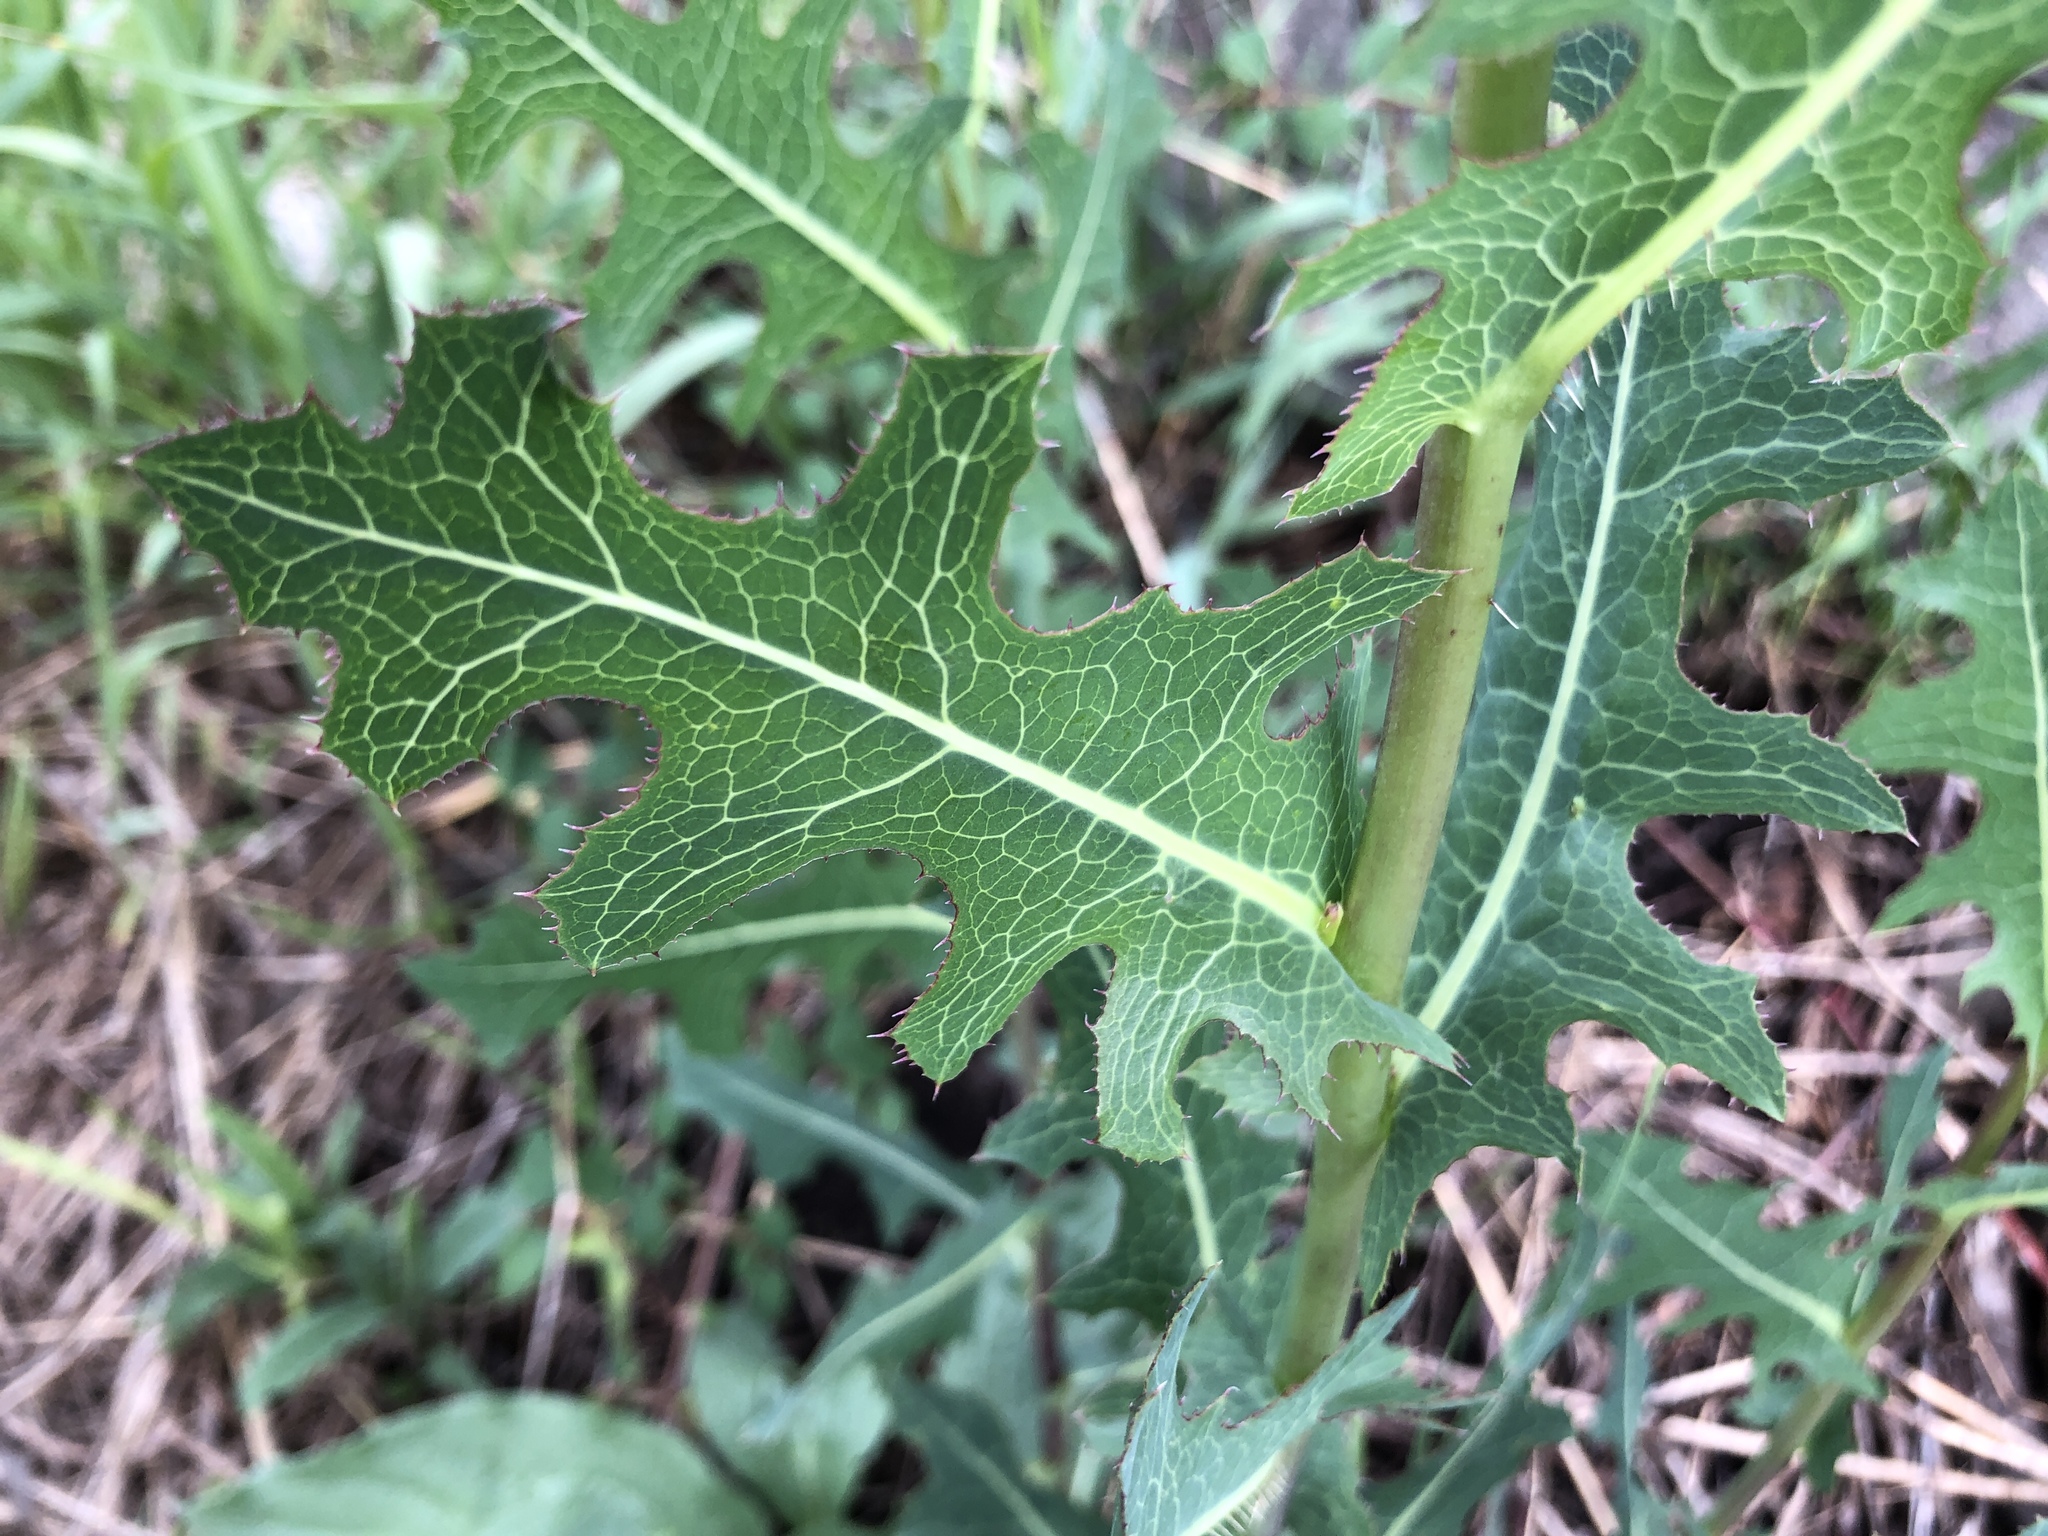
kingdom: Plantae
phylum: Tracheophyta
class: Magnoliopsida
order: Asterales
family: Asteraceae
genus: Lactuca
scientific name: Lactuca serriola
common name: Prickly lettuce
